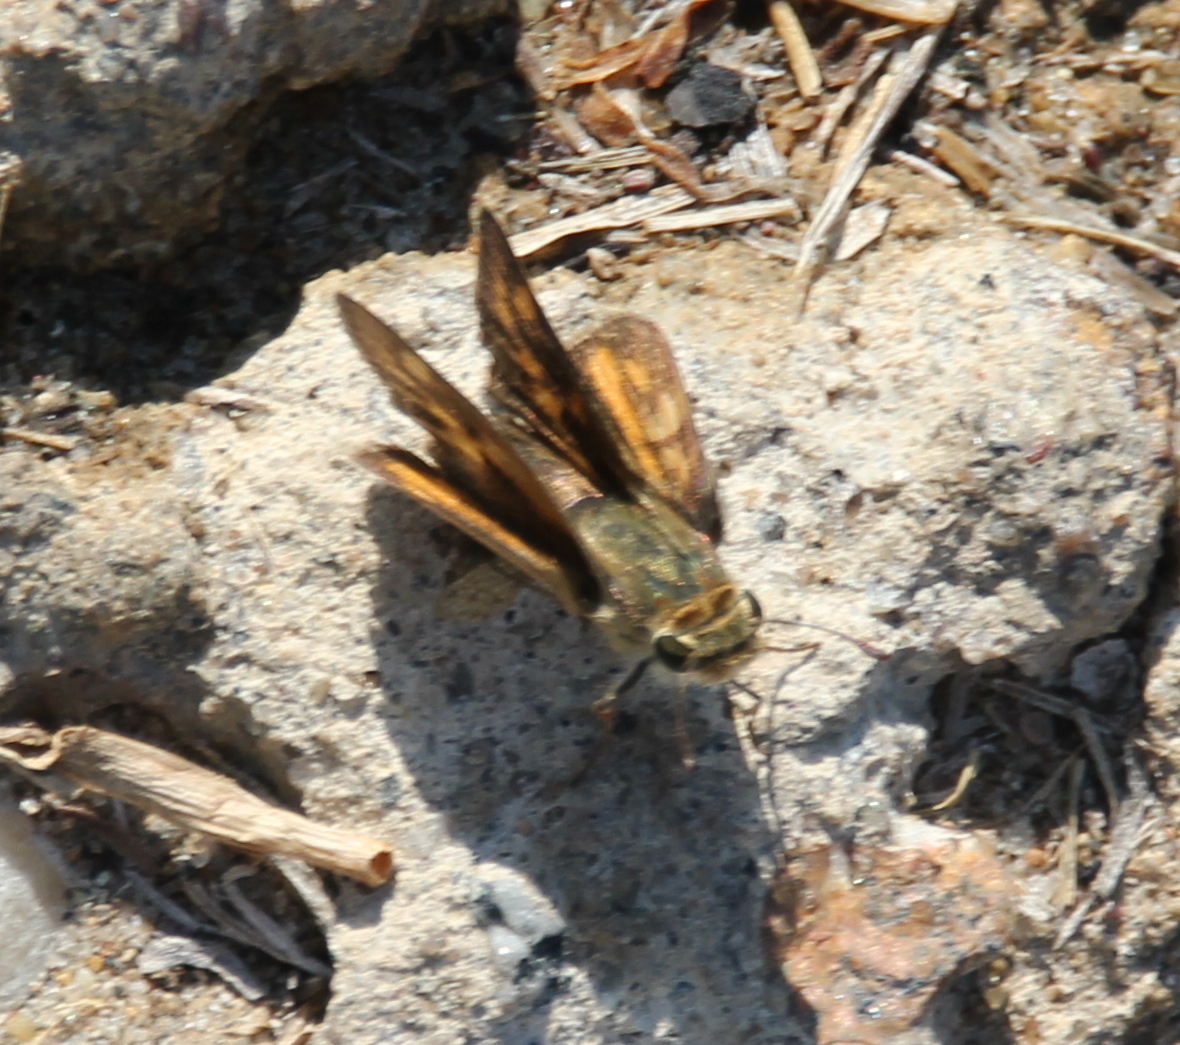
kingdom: Animalia
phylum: Arthropoda
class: Insecta
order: Lepidoptera
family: Hesperiidae
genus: Hylephila
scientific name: Hylephila phyleus
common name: Fiery skipper
